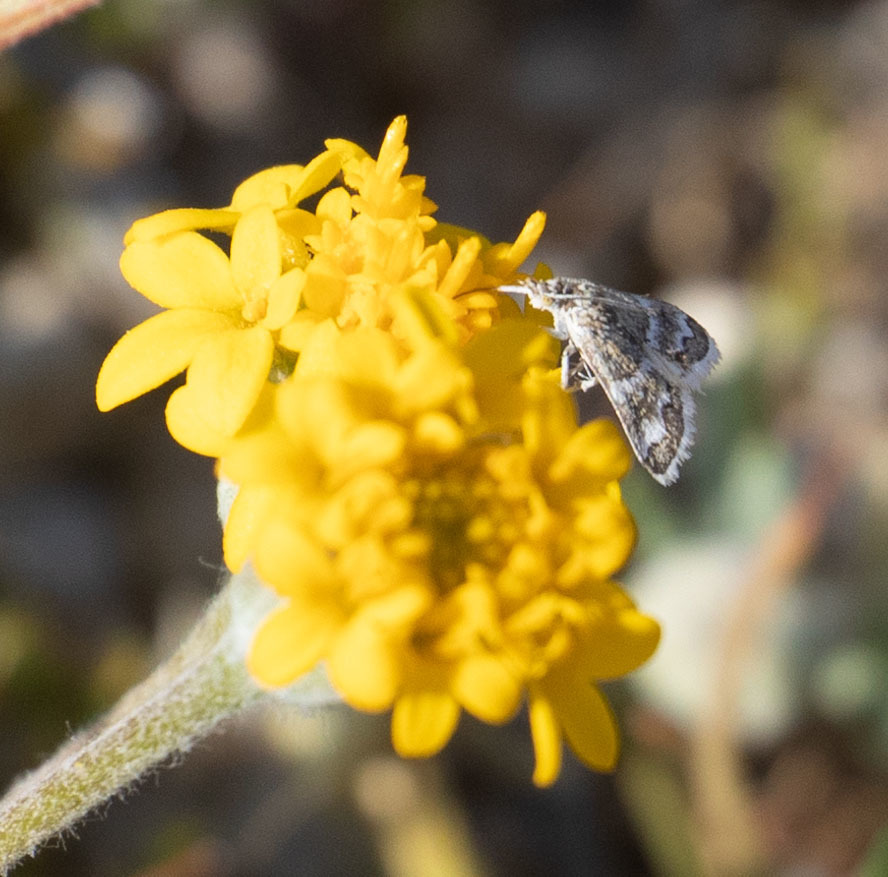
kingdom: Animalia
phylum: Arthropoda
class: Insecta
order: Lepidoptera
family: Crambidae
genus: Nannobotys
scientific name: Nannobotys commortalis
